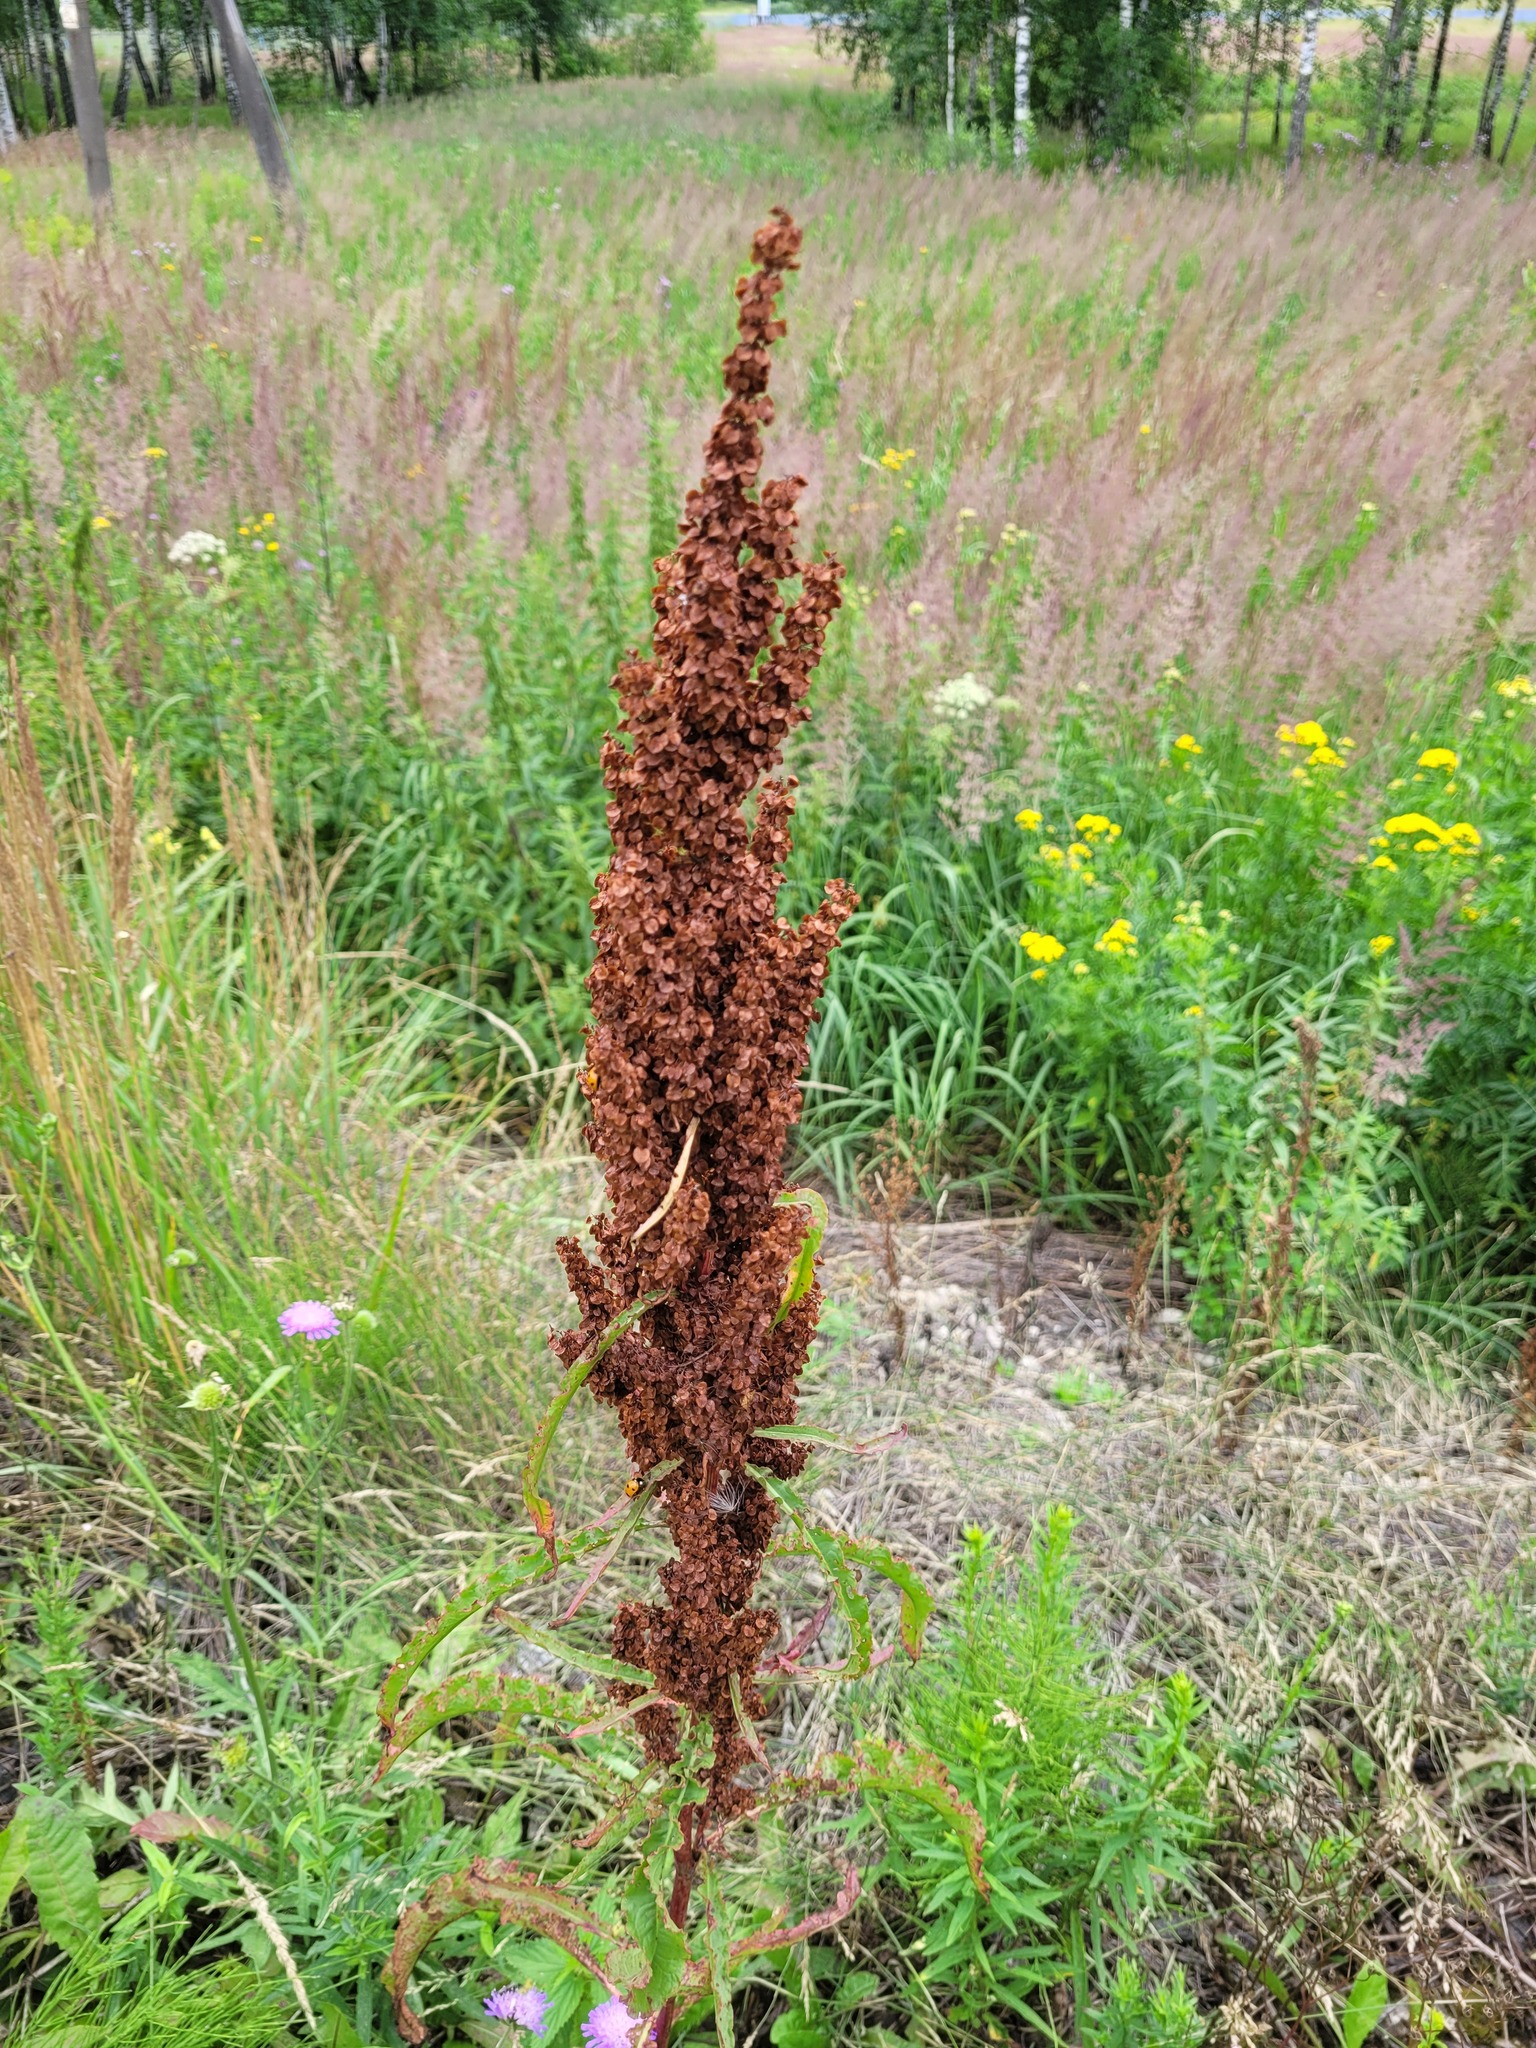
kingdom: Plantae
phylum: Tracheophyta
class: Magnoliopsida
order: Caryophyllales
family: Polygonaceae
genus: Rumex
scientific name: Rumex pseudonatronatus
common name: Field dock
